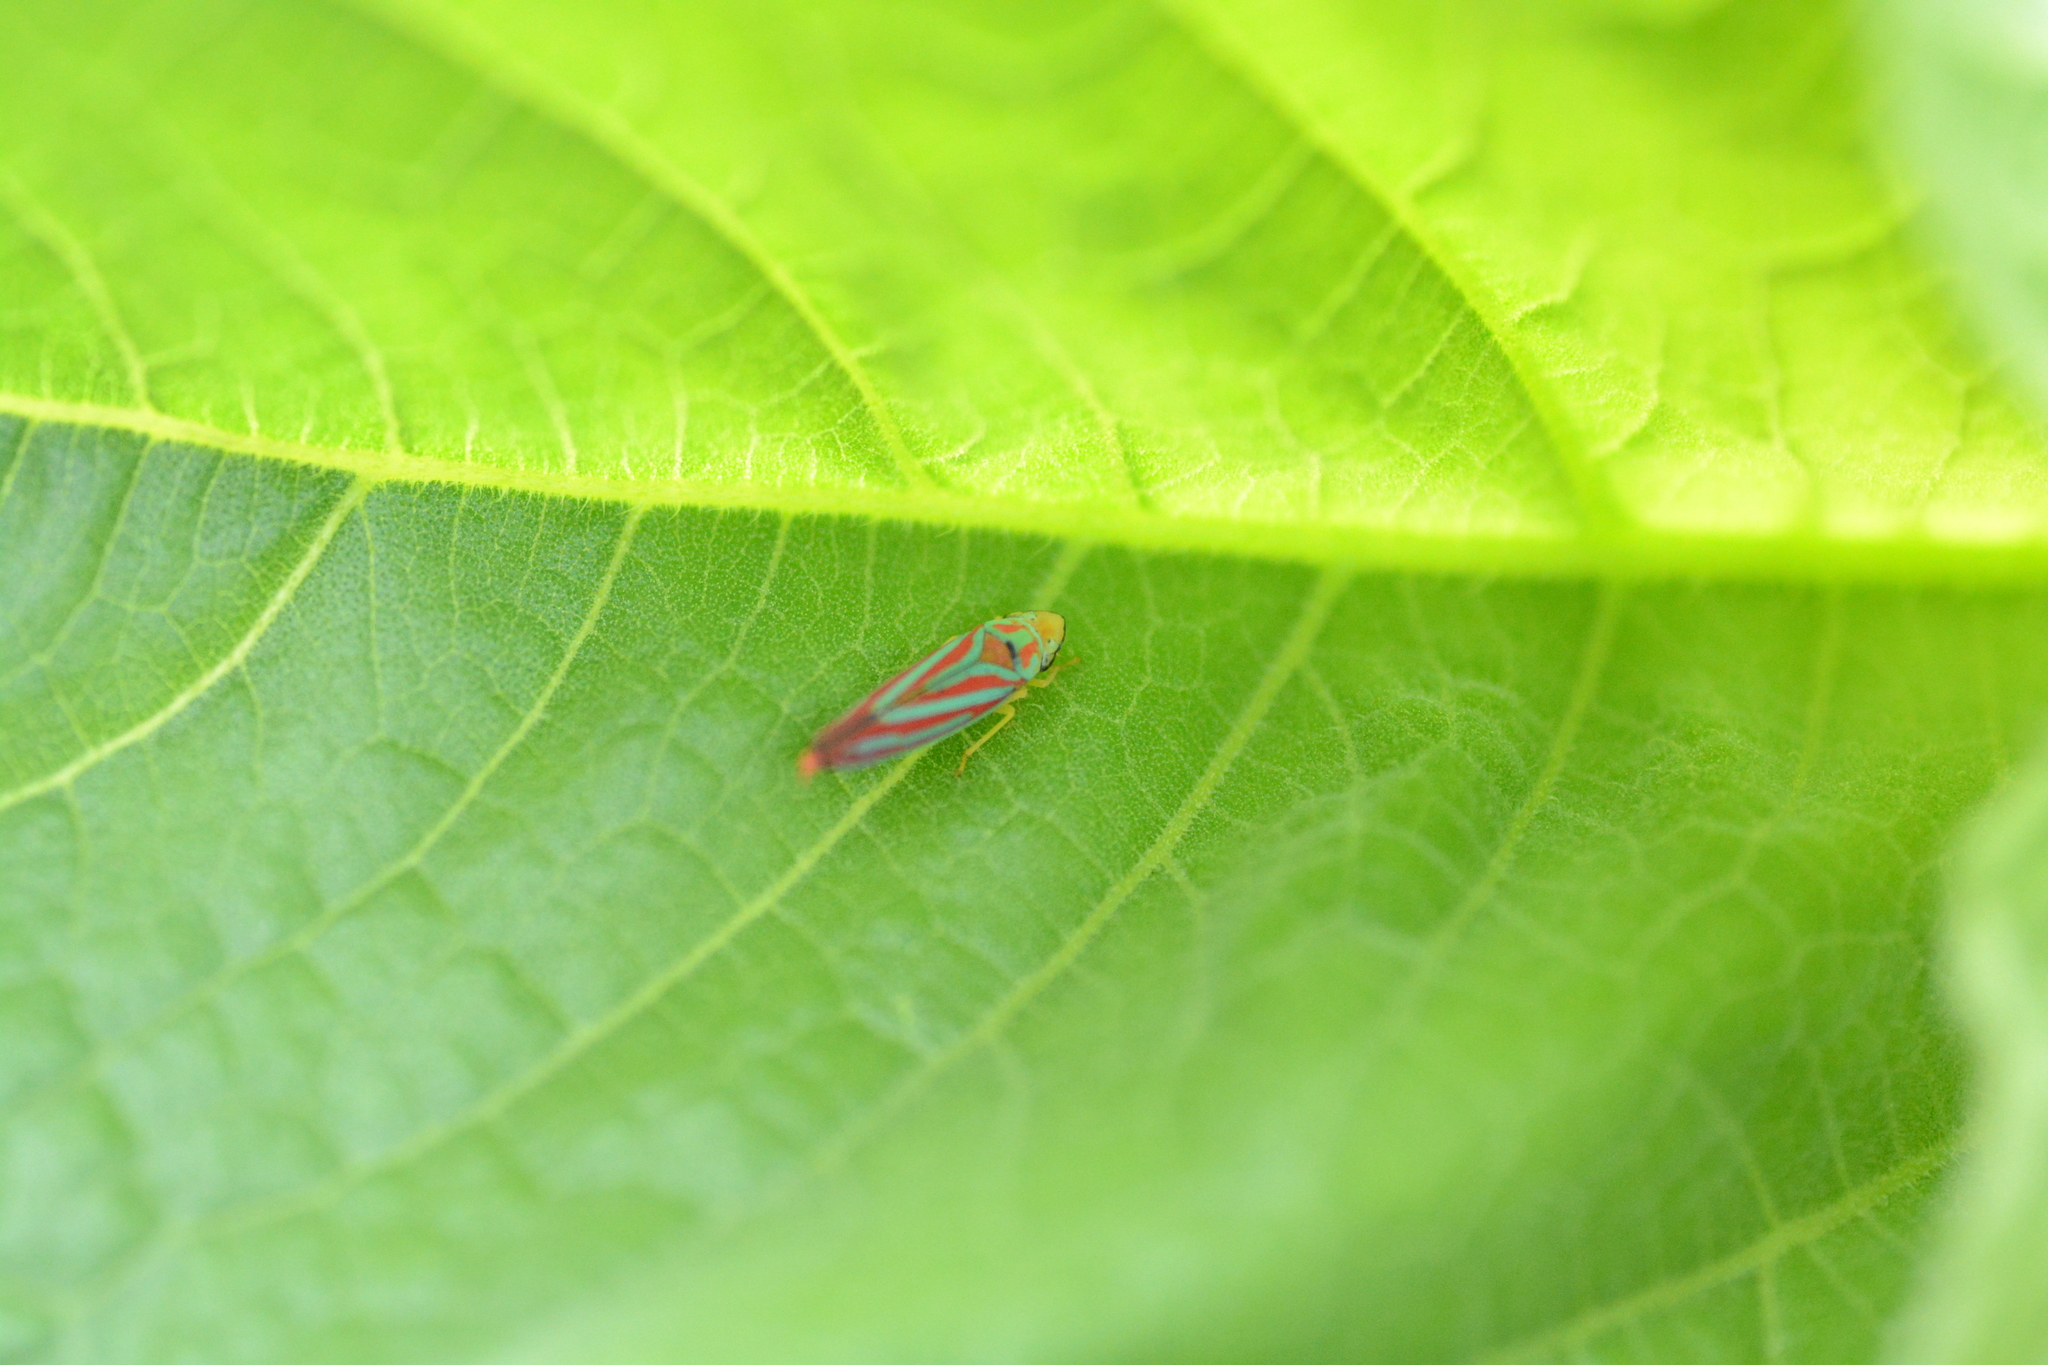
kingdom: Animalia
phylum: Arthropoda
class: Insecta
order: Hemiptera
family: Cicadellidae
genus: Graphocephala
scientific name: Graphocephala coccinea
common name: Candy-striped leafhopper
